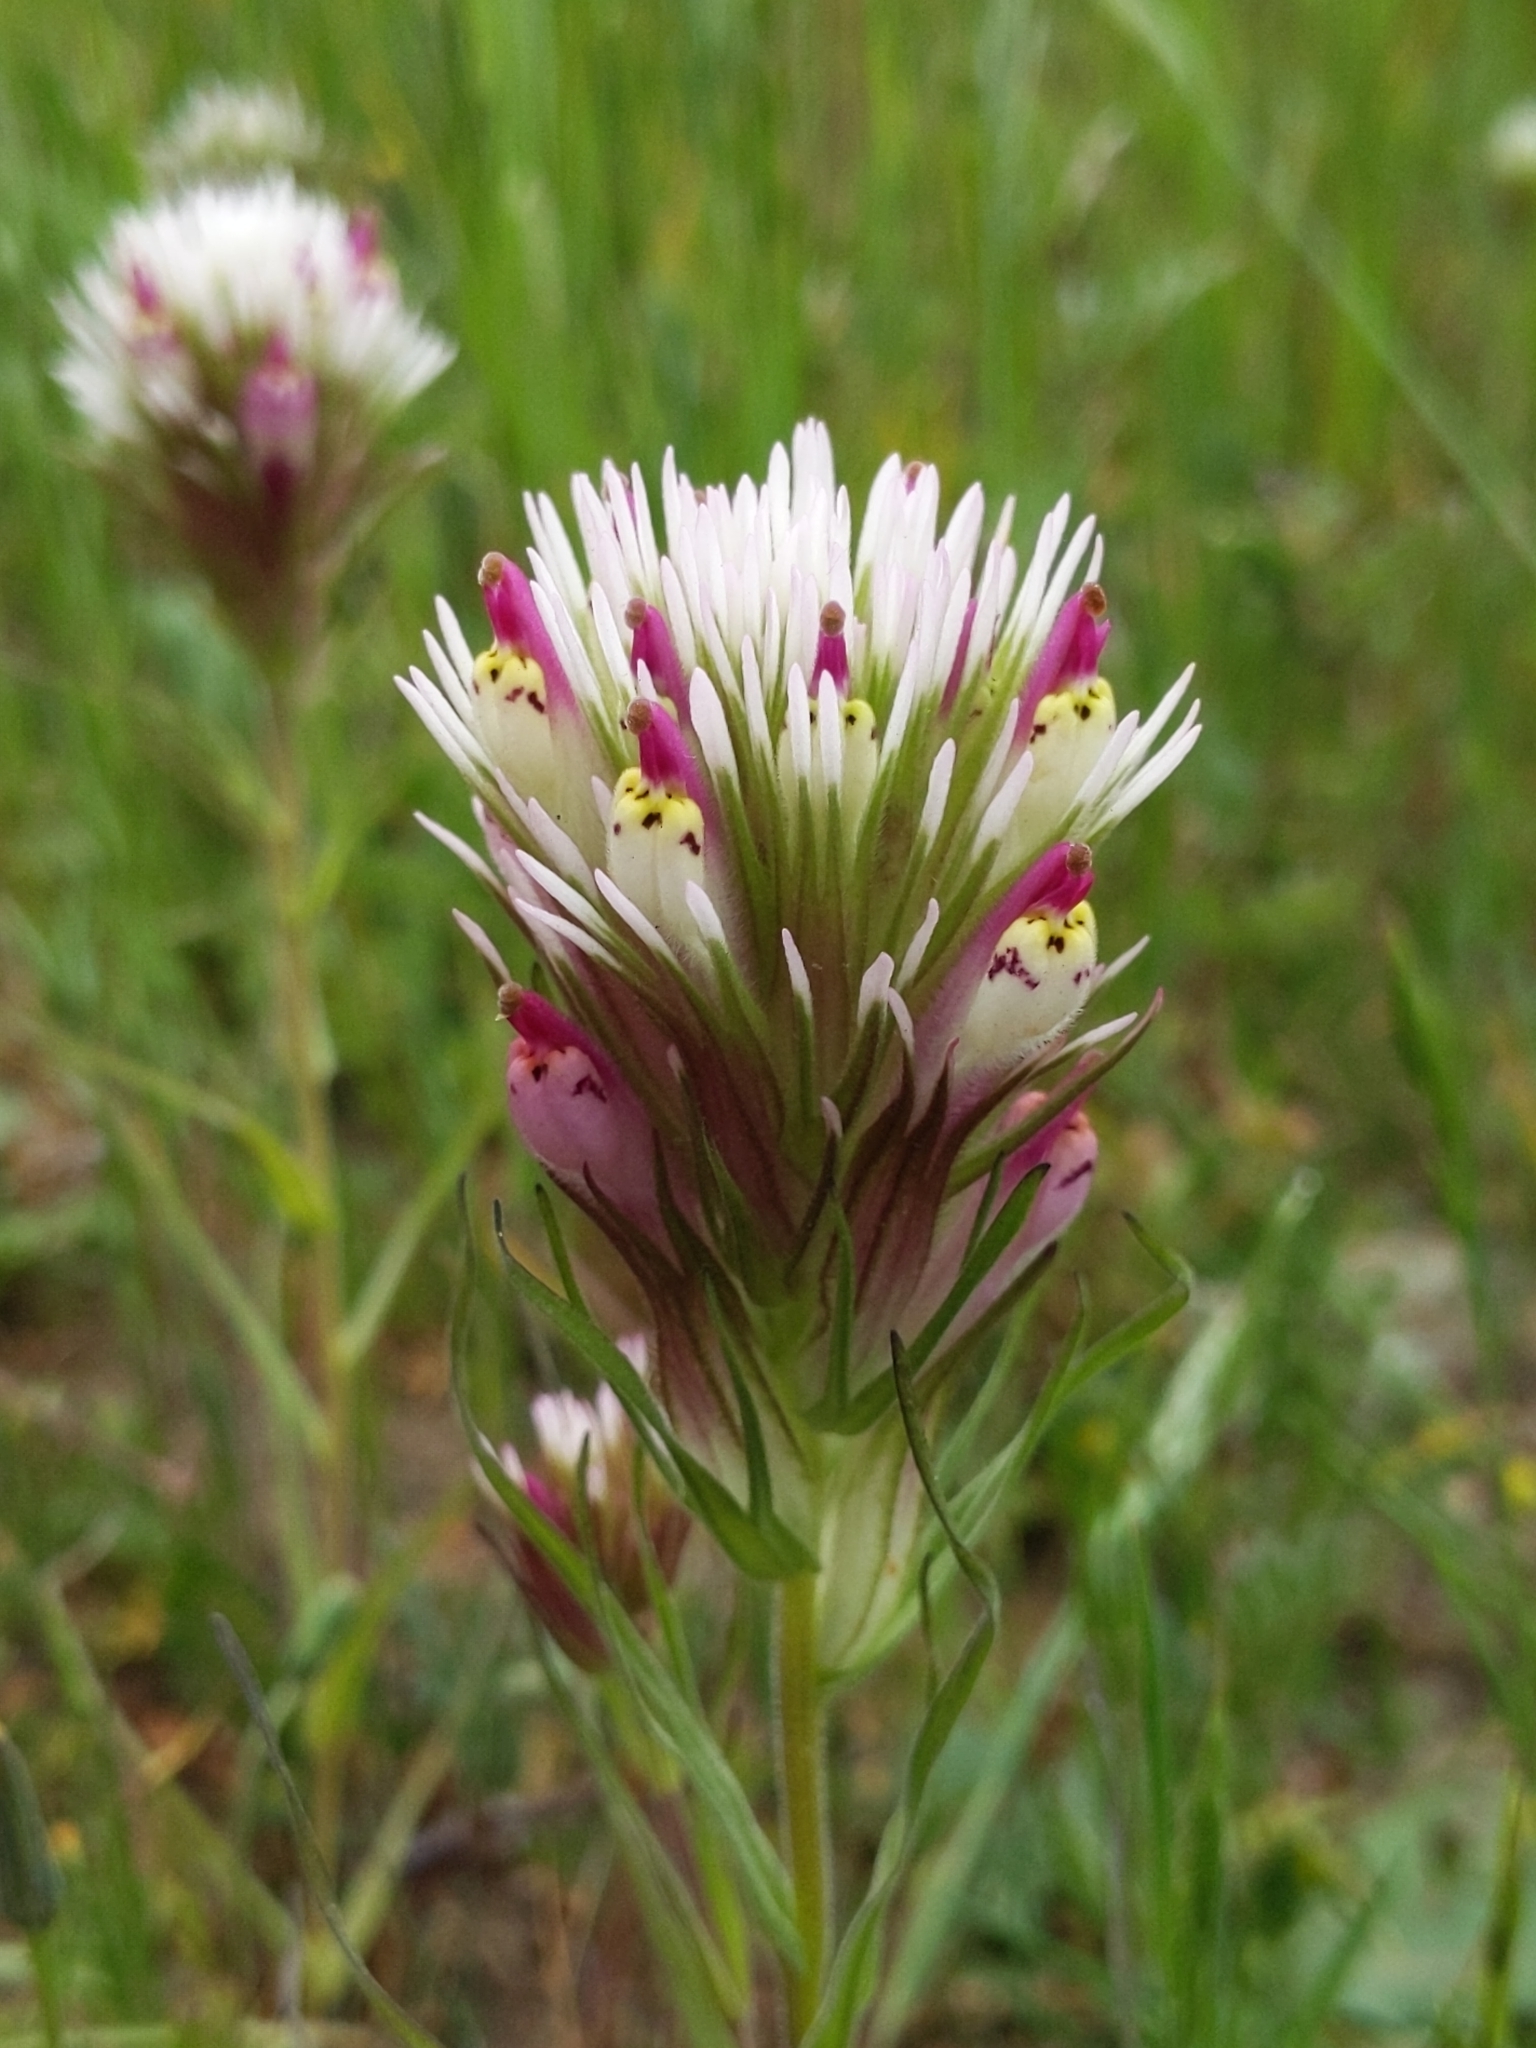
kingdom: Plantae
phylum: Tracheophyta
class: Magnoliopsida
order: Lamiales
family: Orobanchaceae
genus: Castilleja
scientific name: Castilleja densiflora
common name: Dense-flower indian paintbrush
